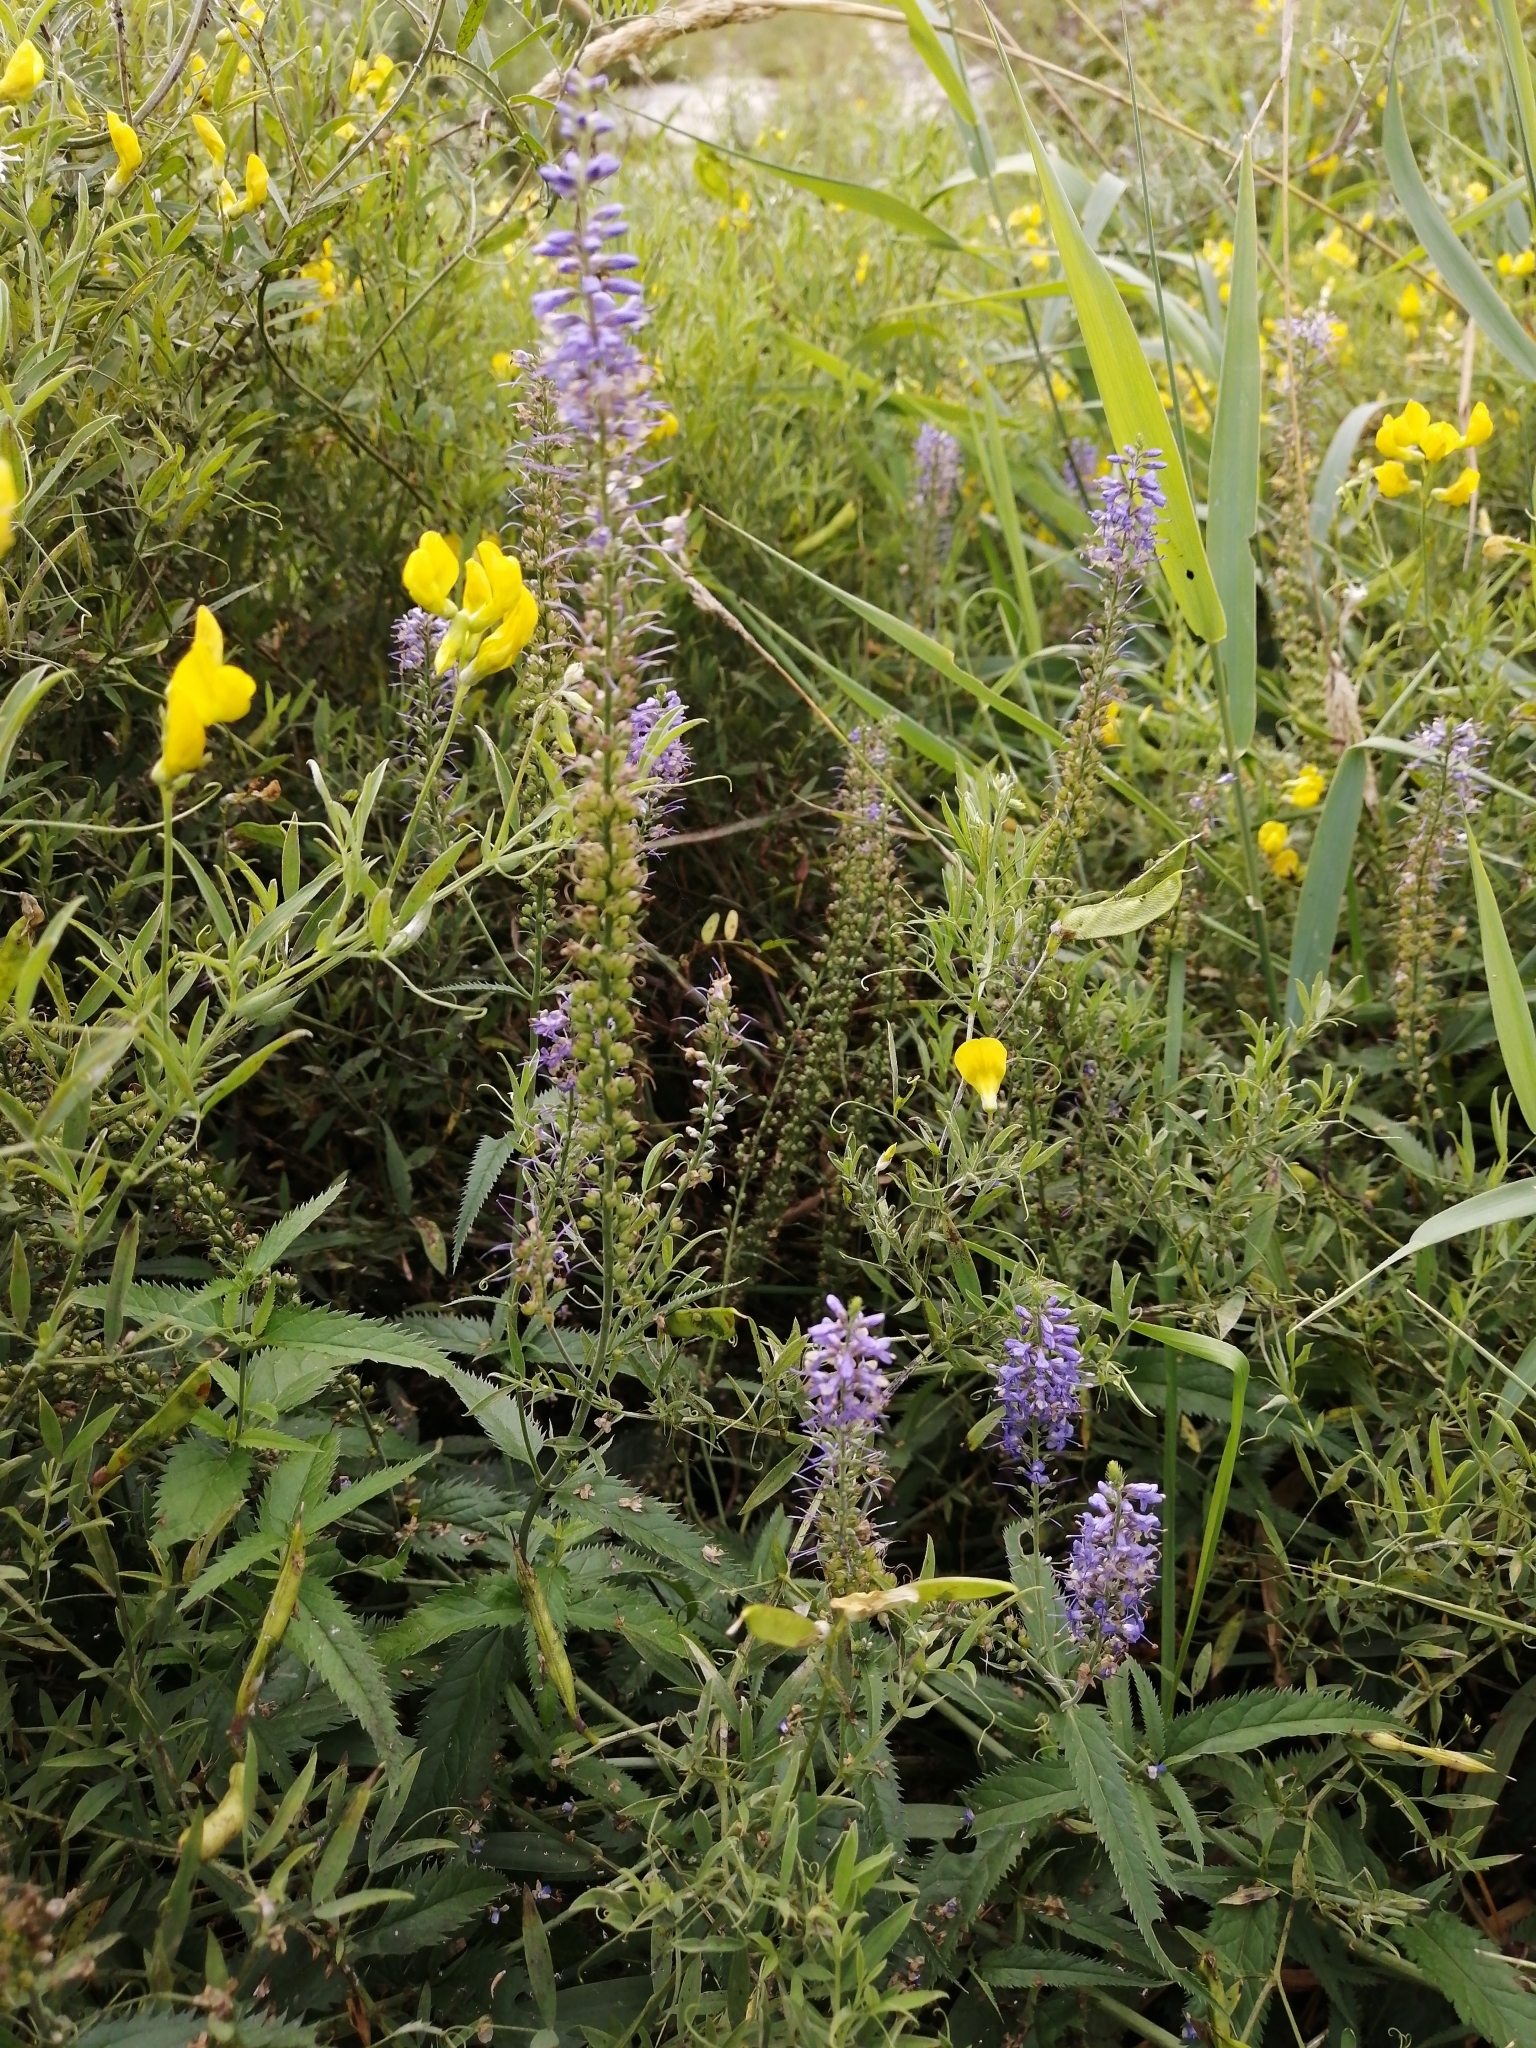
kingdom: Plantae
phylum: Tracheophyta
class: Magnoliopsida
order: Lamiales
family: Plantaginaceae
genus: Veronica
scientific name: Veronica longifolia
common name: Garden speedwell
